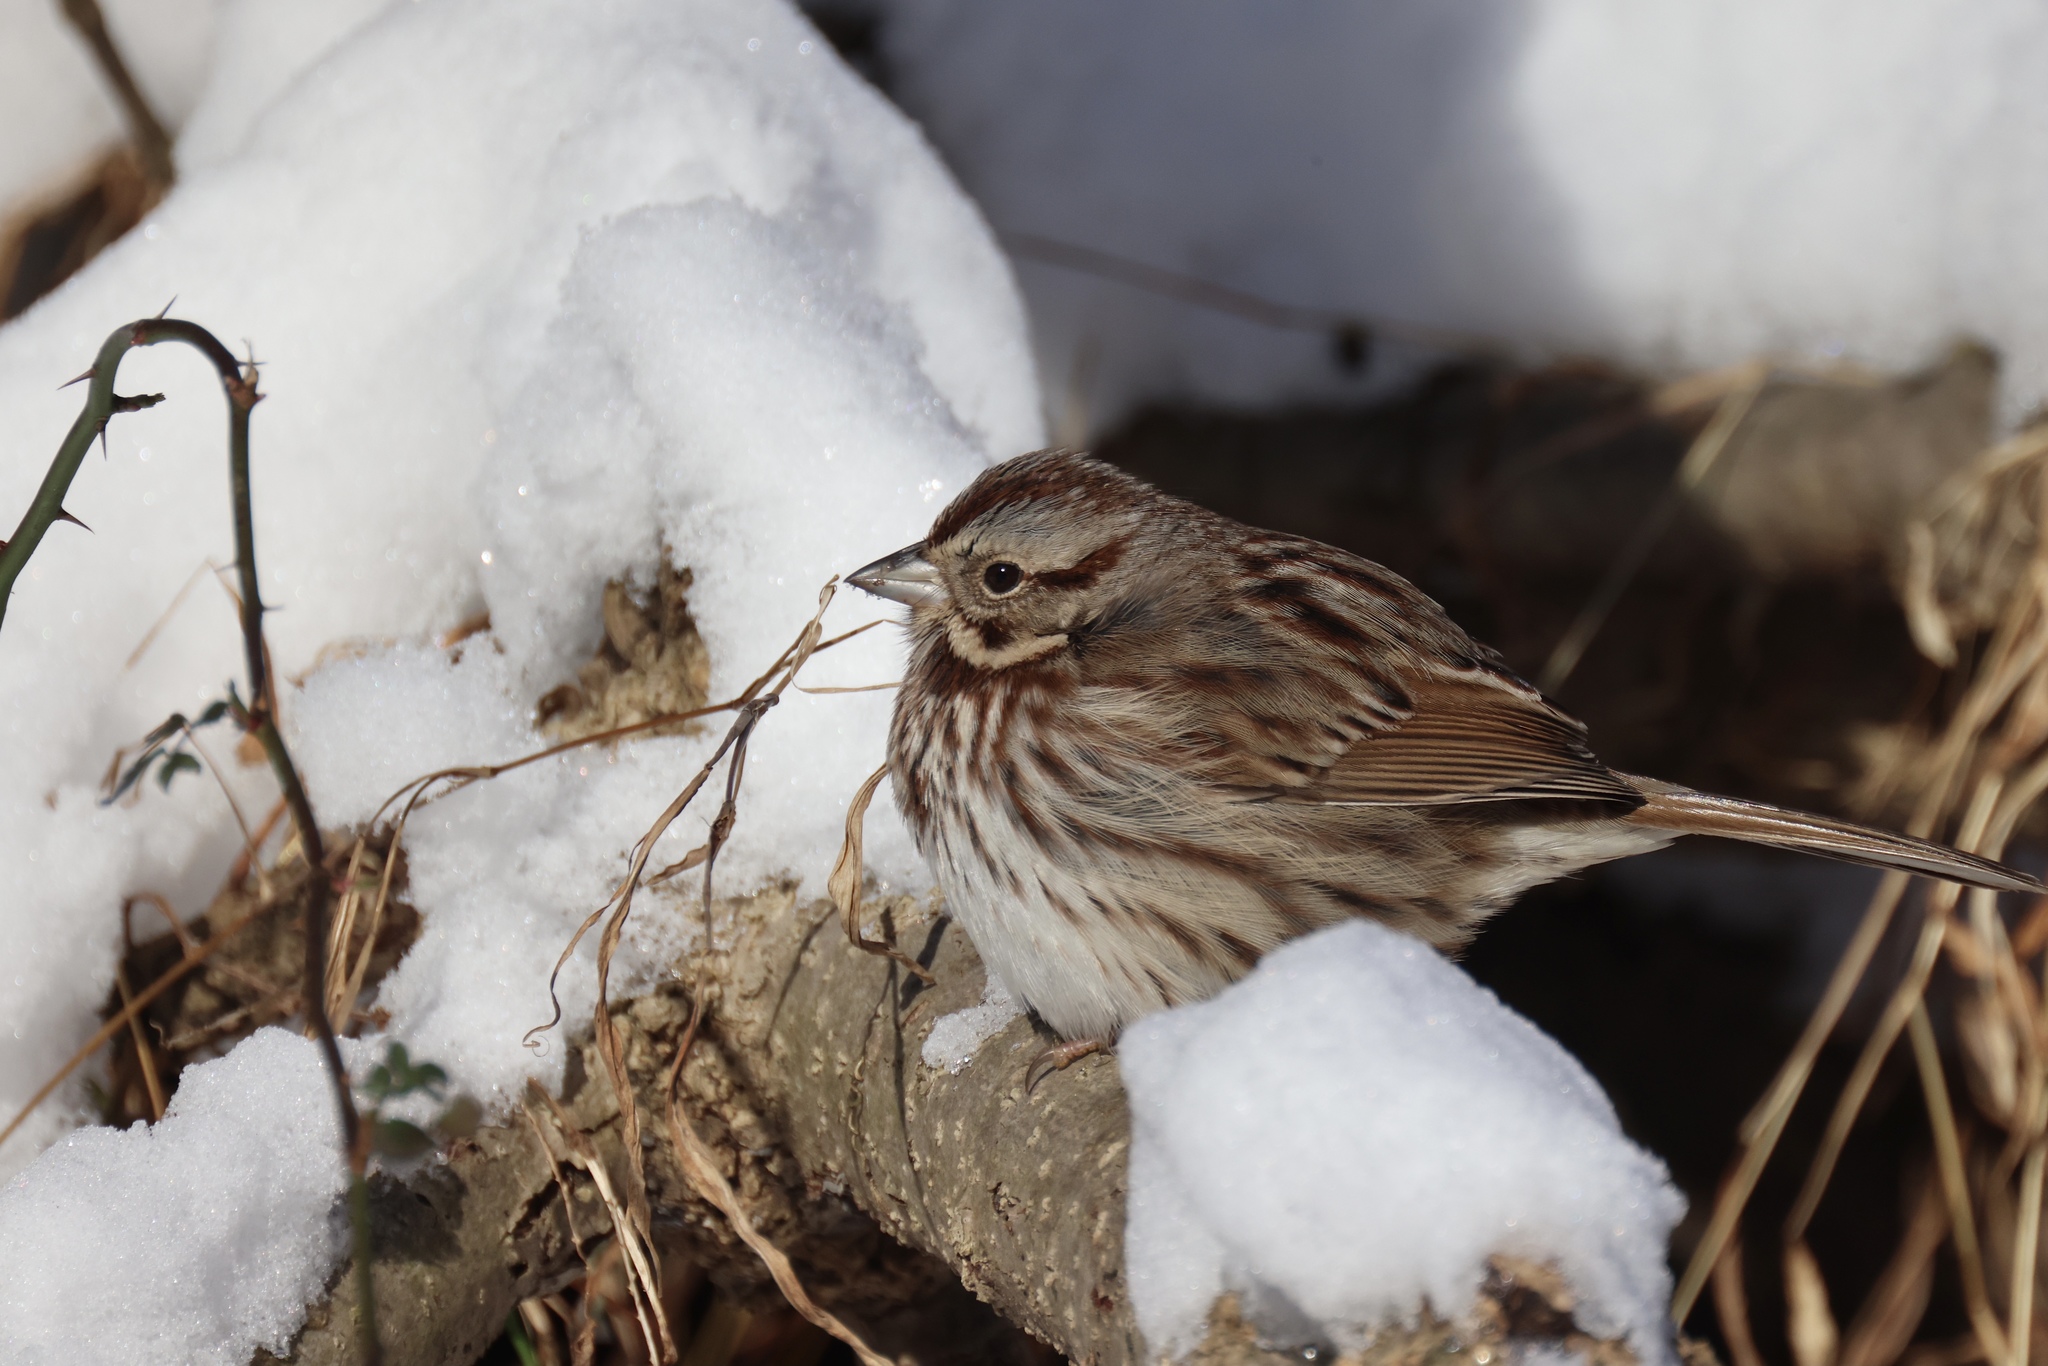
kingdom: Animalia
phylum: Chordata
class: Aves
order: Passeriformes
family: Passerellidae
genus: Melospiza
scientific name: Melospiza melodia
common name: Song sparrow
